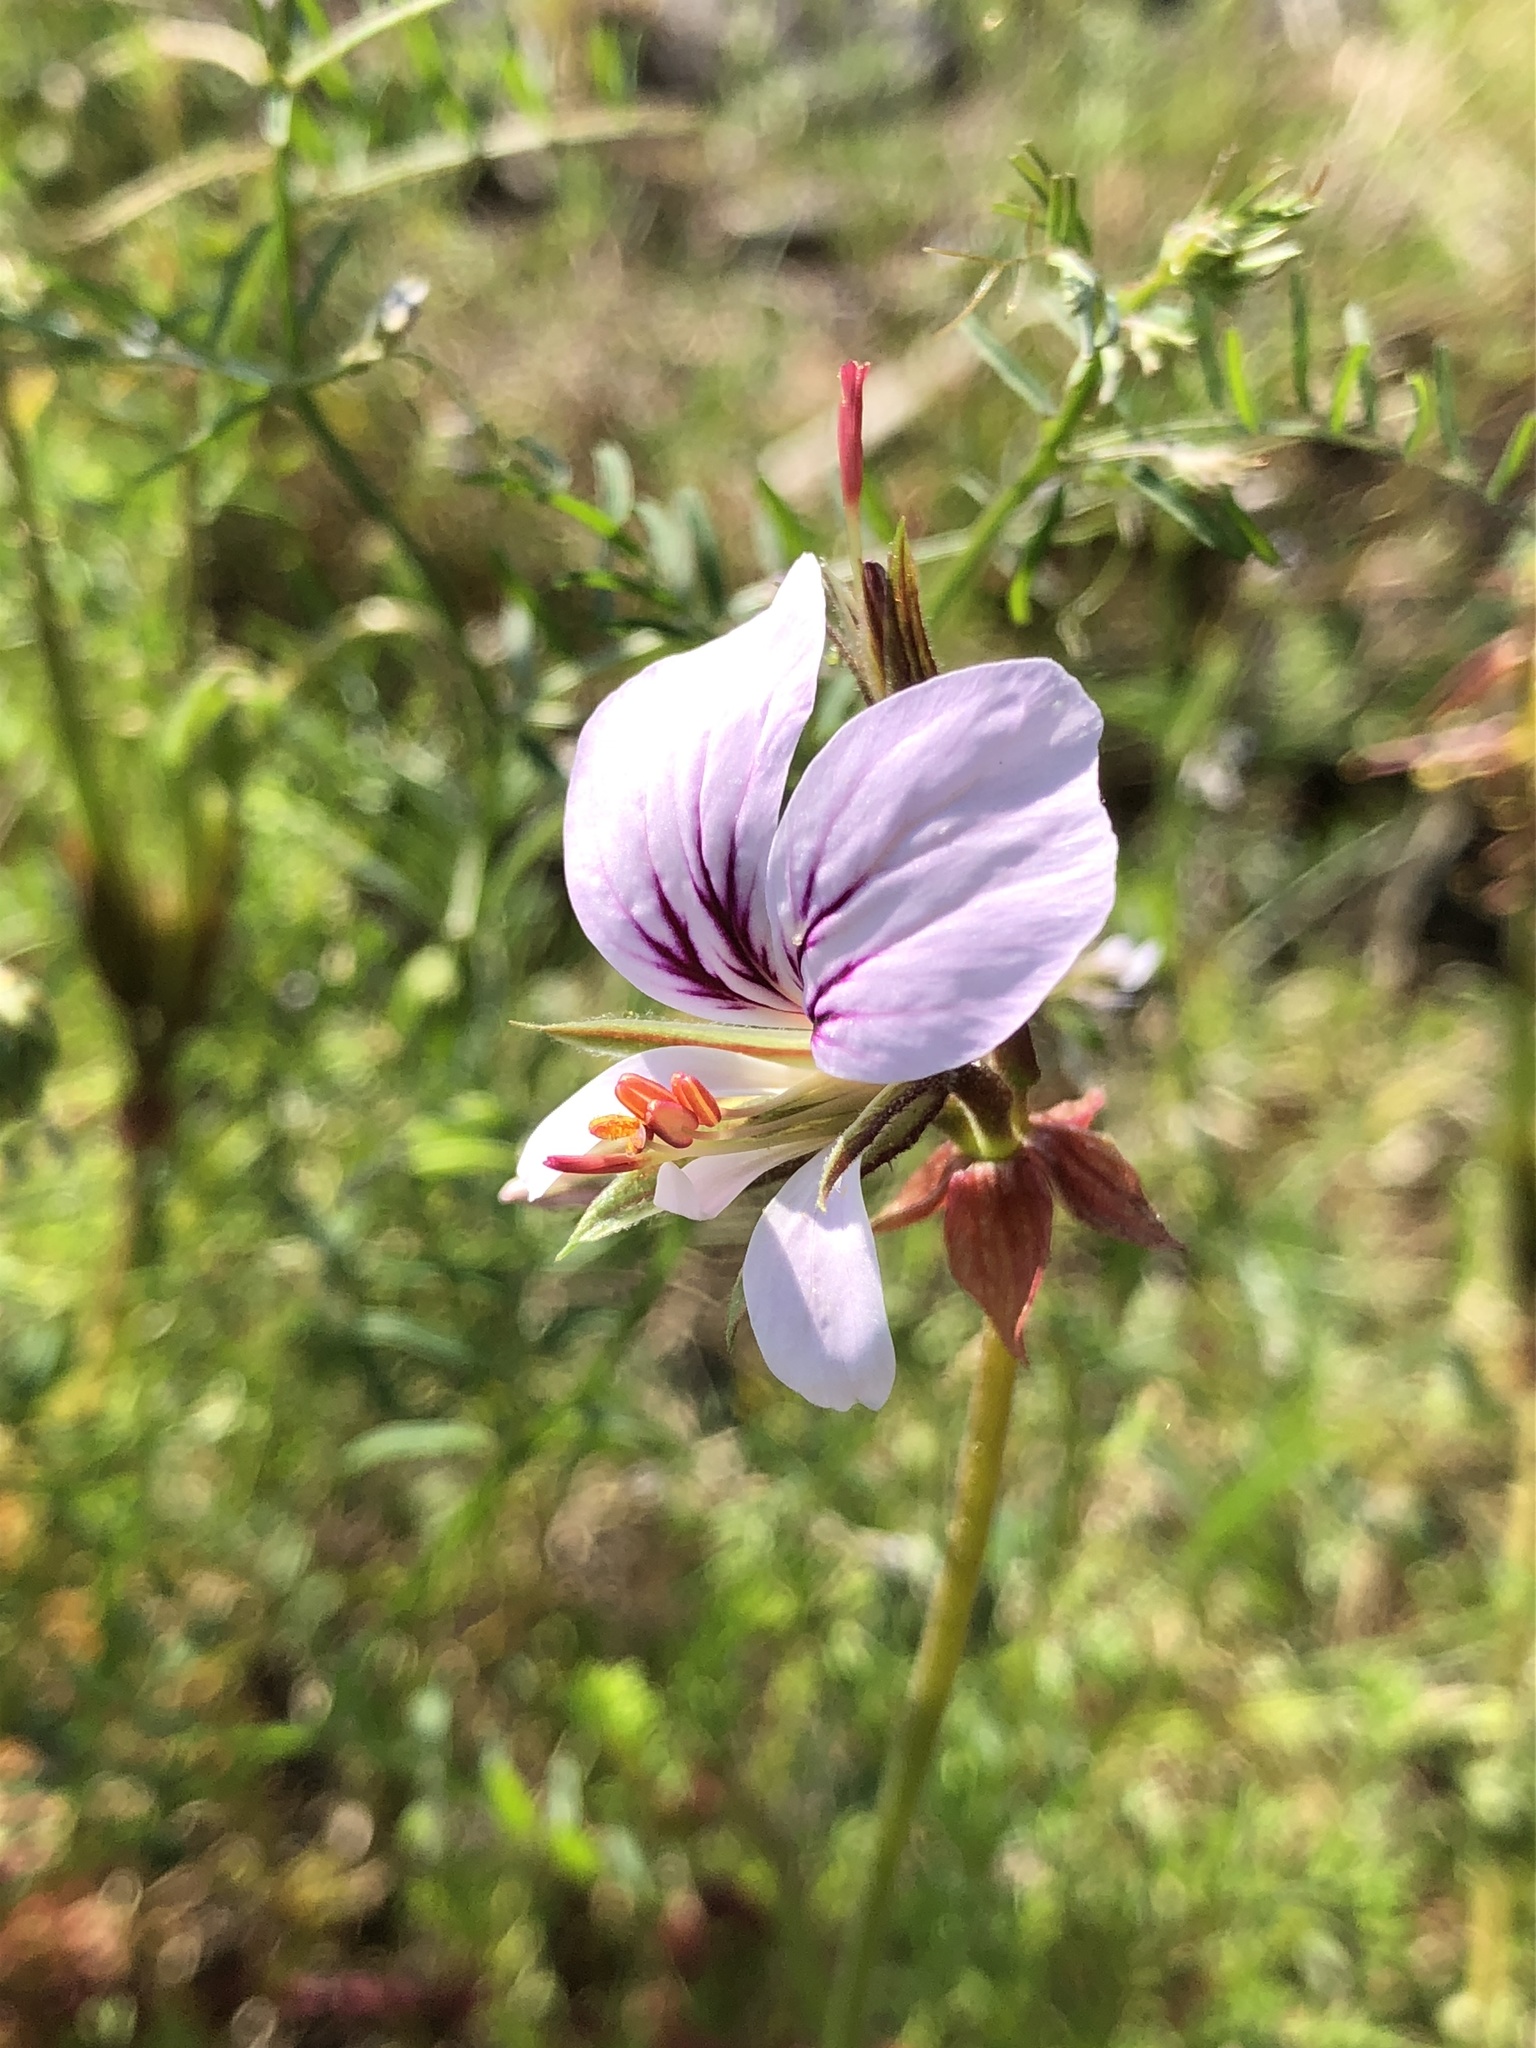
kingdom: Plantae
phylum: Tracheophyta
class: Magnoliopsida
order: Geraniales
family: Geraniaceae
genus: Pelargonium
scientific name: Pelargonium myrrhifolium
